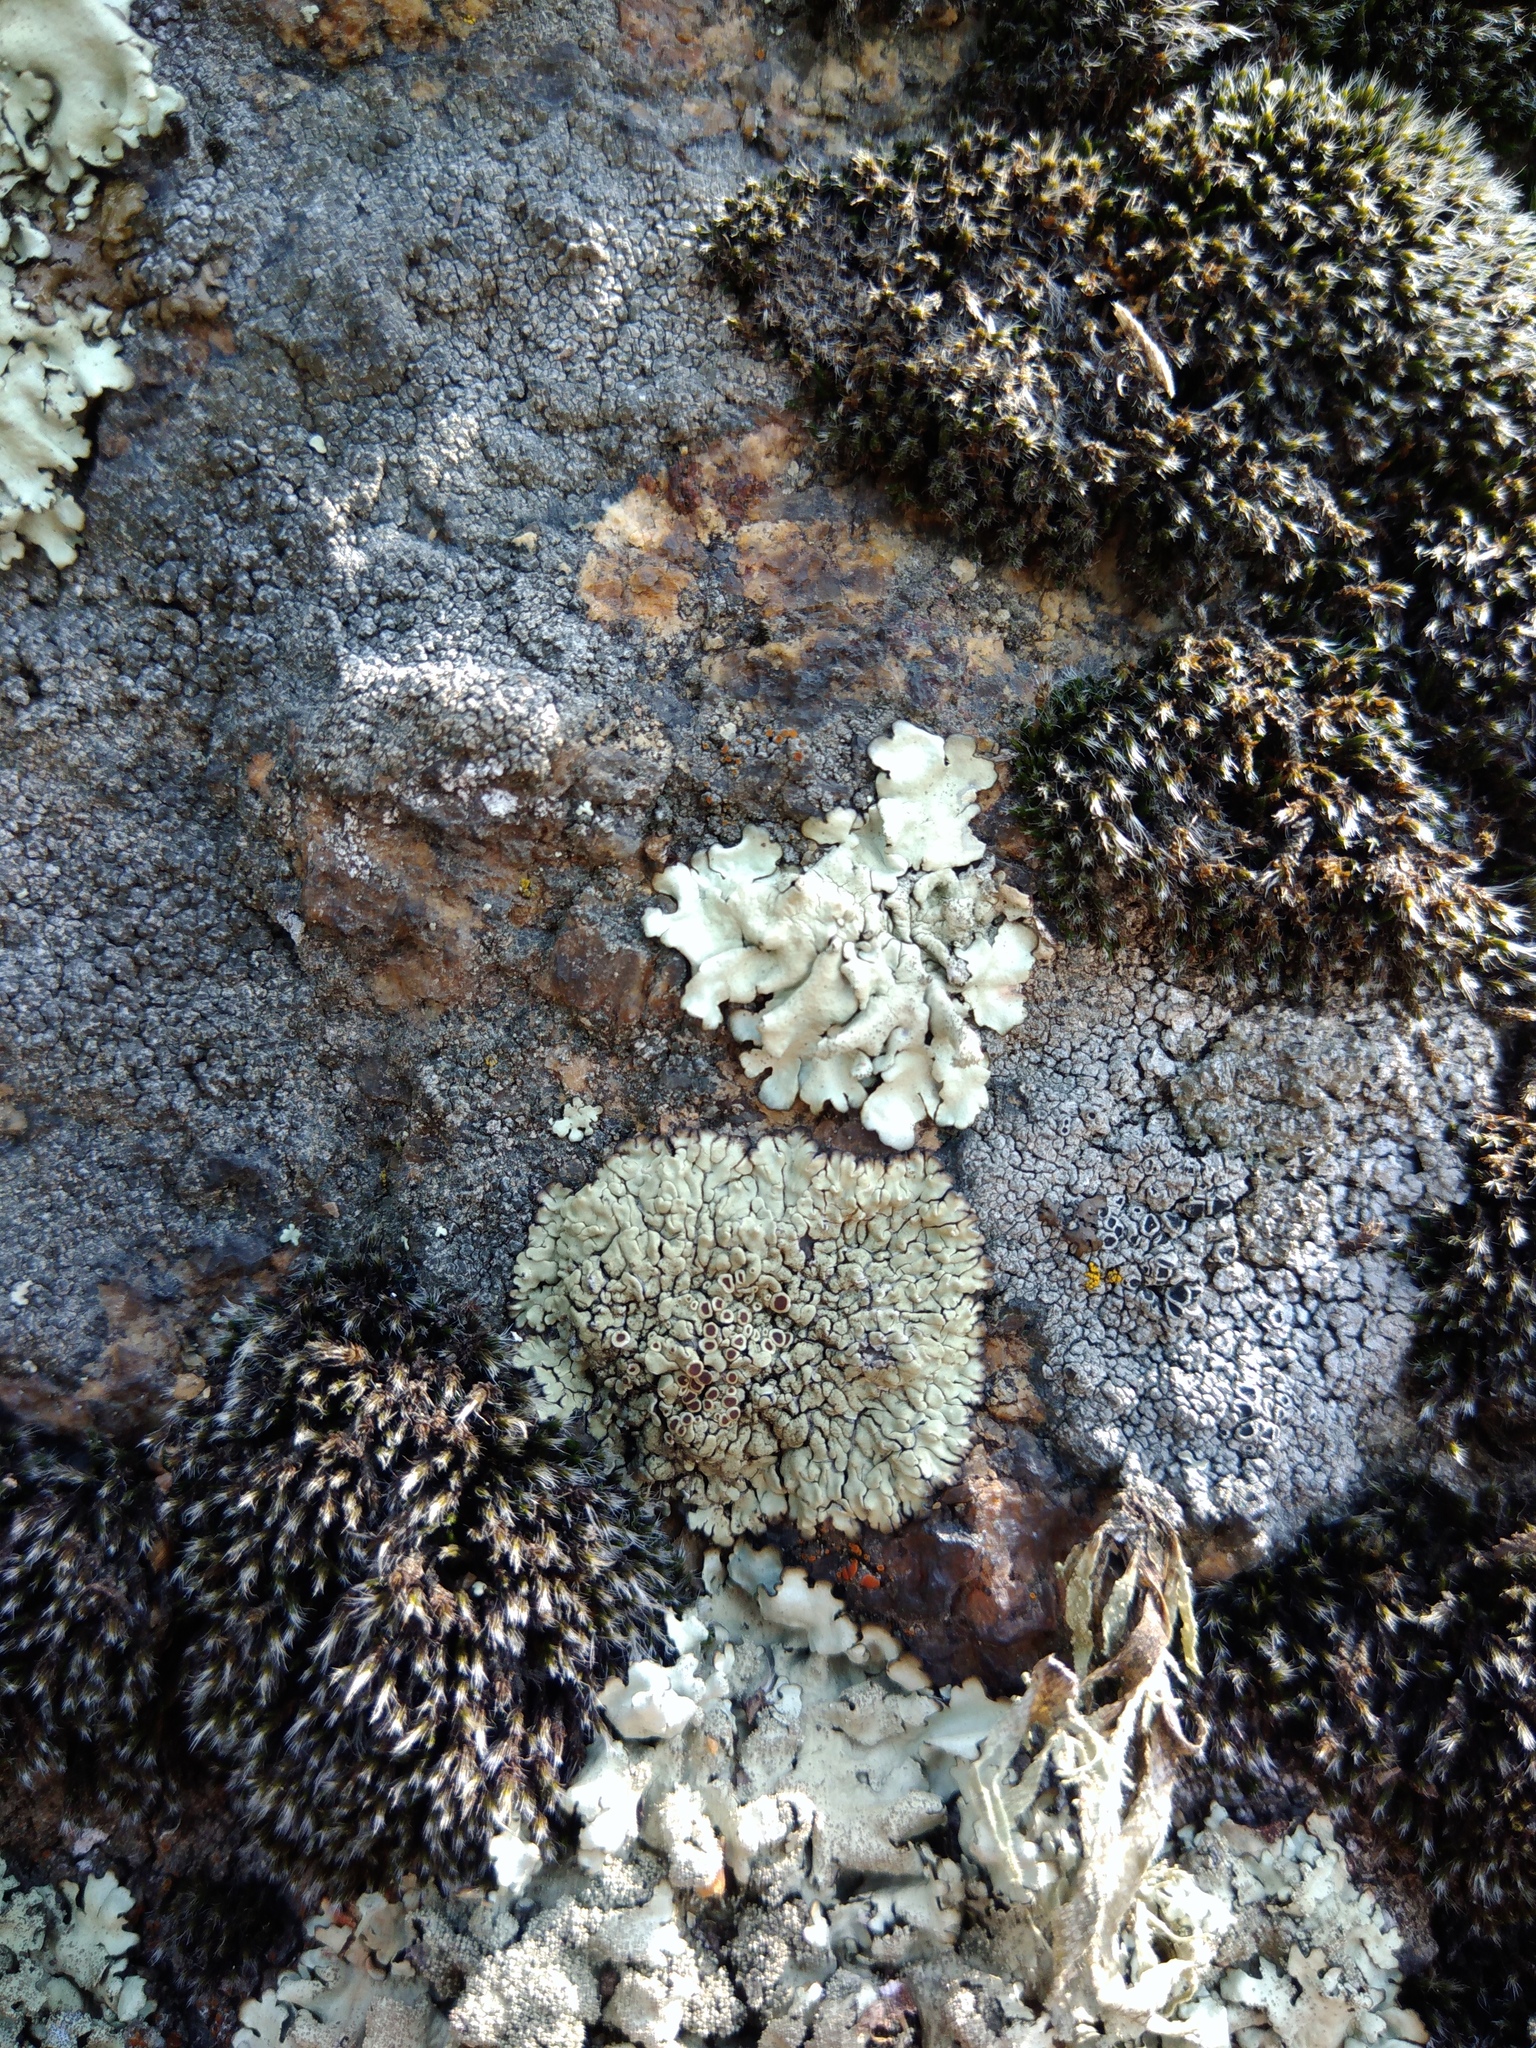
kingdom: Fungi
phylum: Ascomycota
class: Lecanoromycetes
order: Lecanorales
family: Lecanoraceae
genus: Protoparmeliopsis
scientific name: Protoparmeliopsis muralis
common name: Stonewall rim lichen
